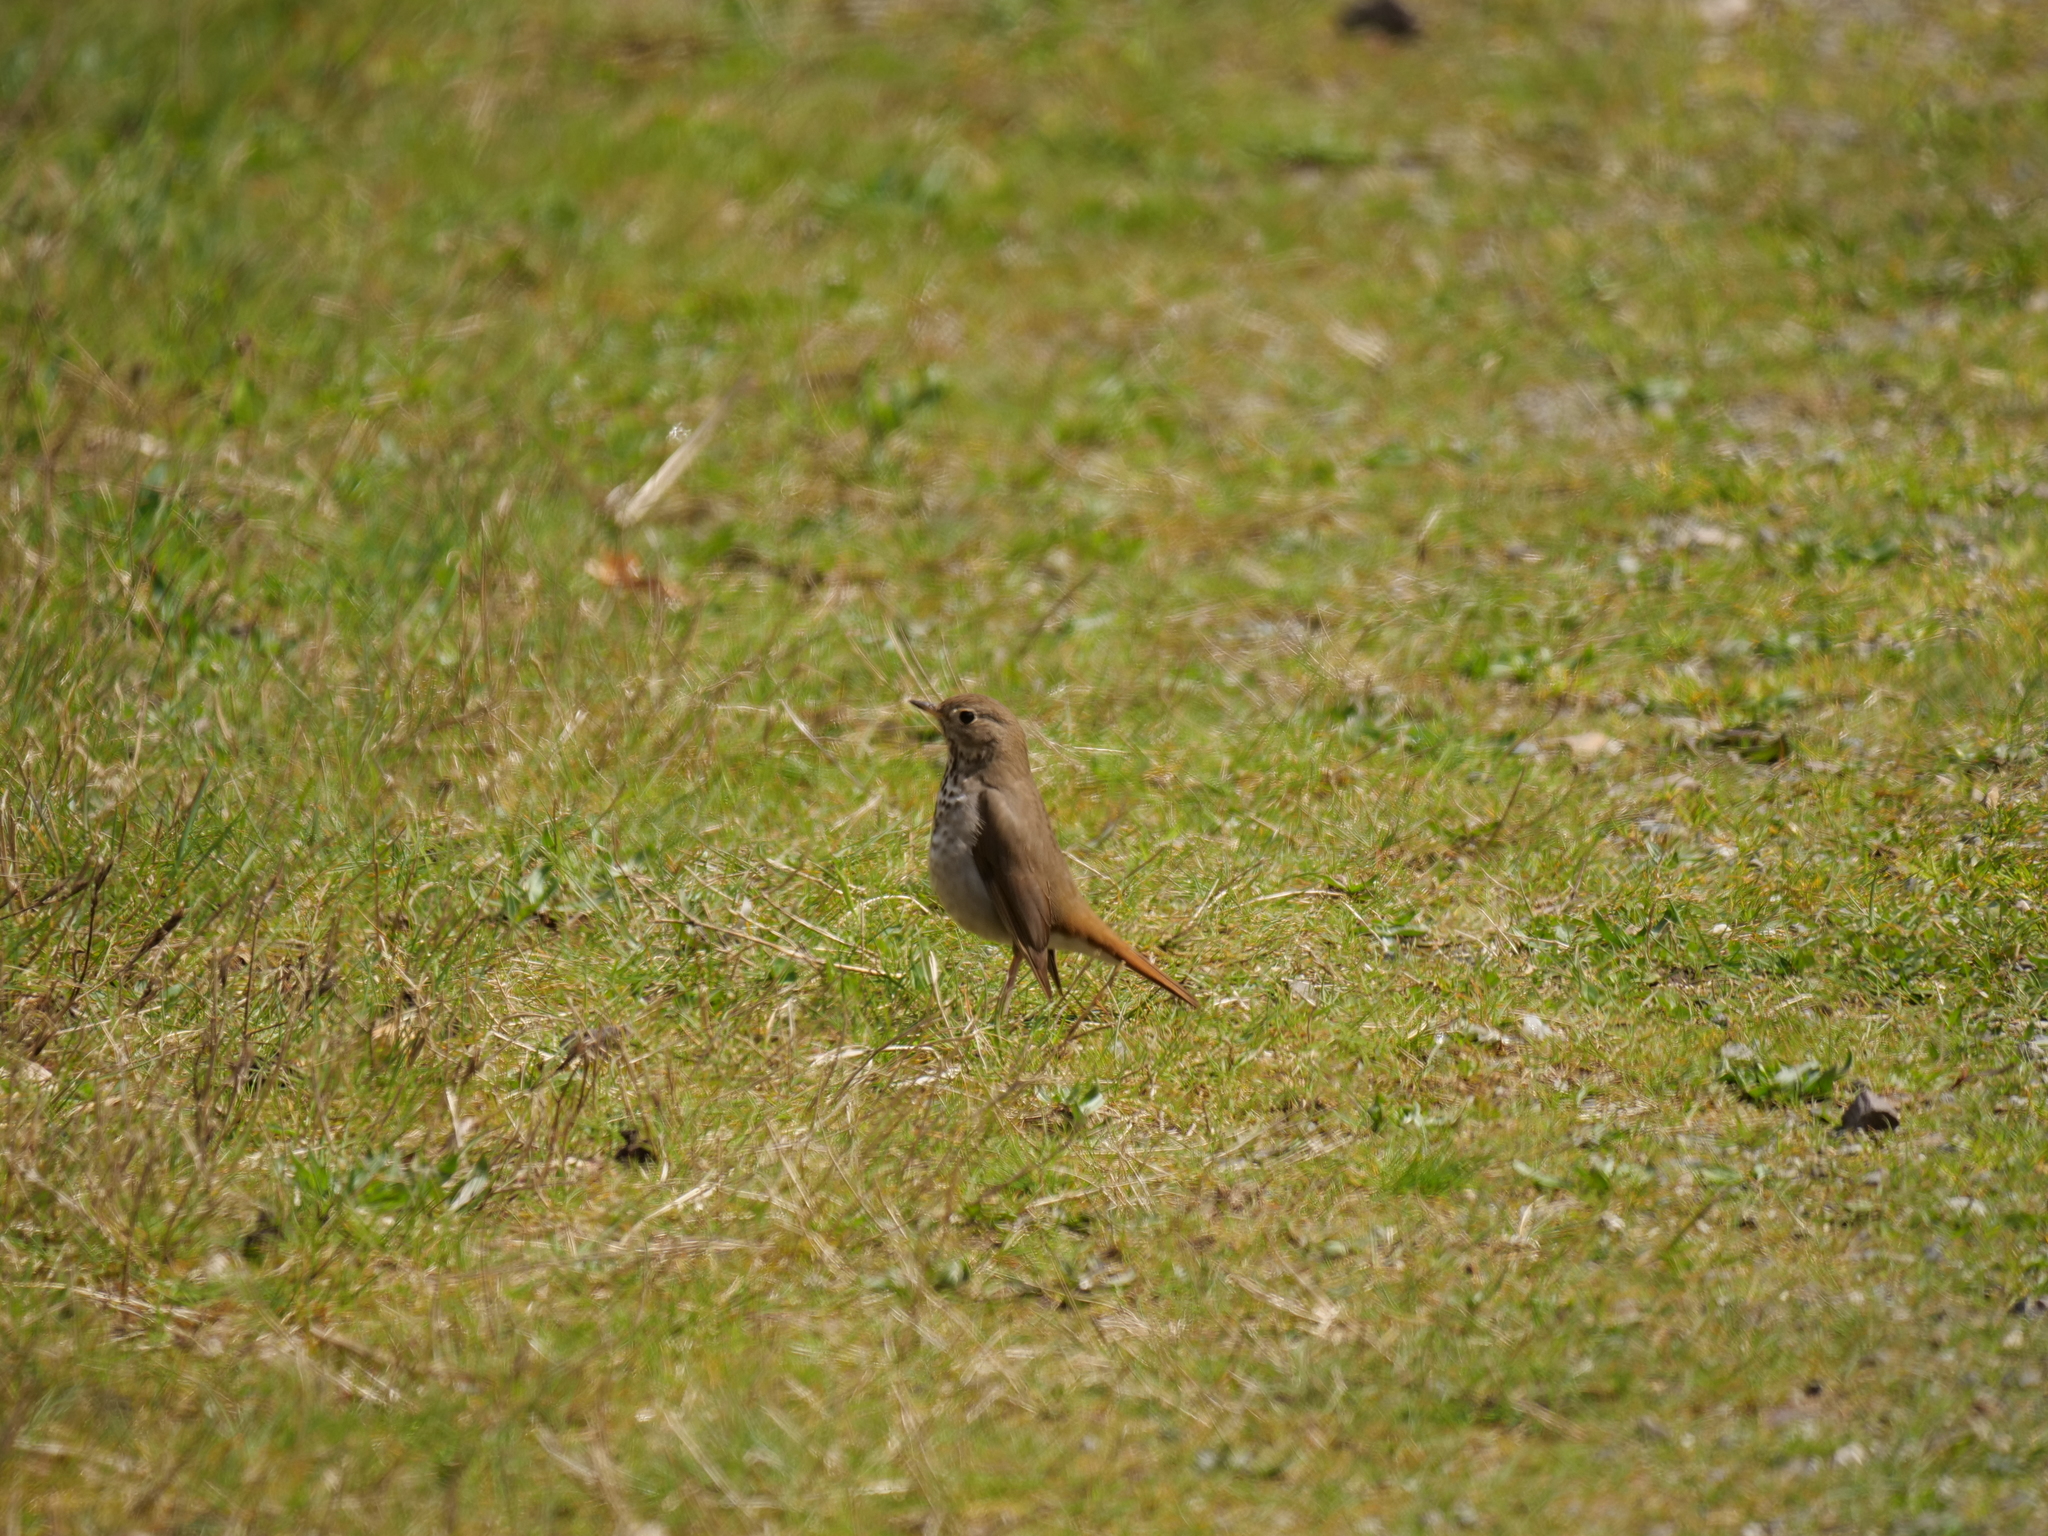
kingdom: Animalia
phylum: Chordata
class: Aves
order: Passeriformes
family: Turdidae
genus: Catharus
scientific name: Catharus guttatus
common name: Hermit thrush
